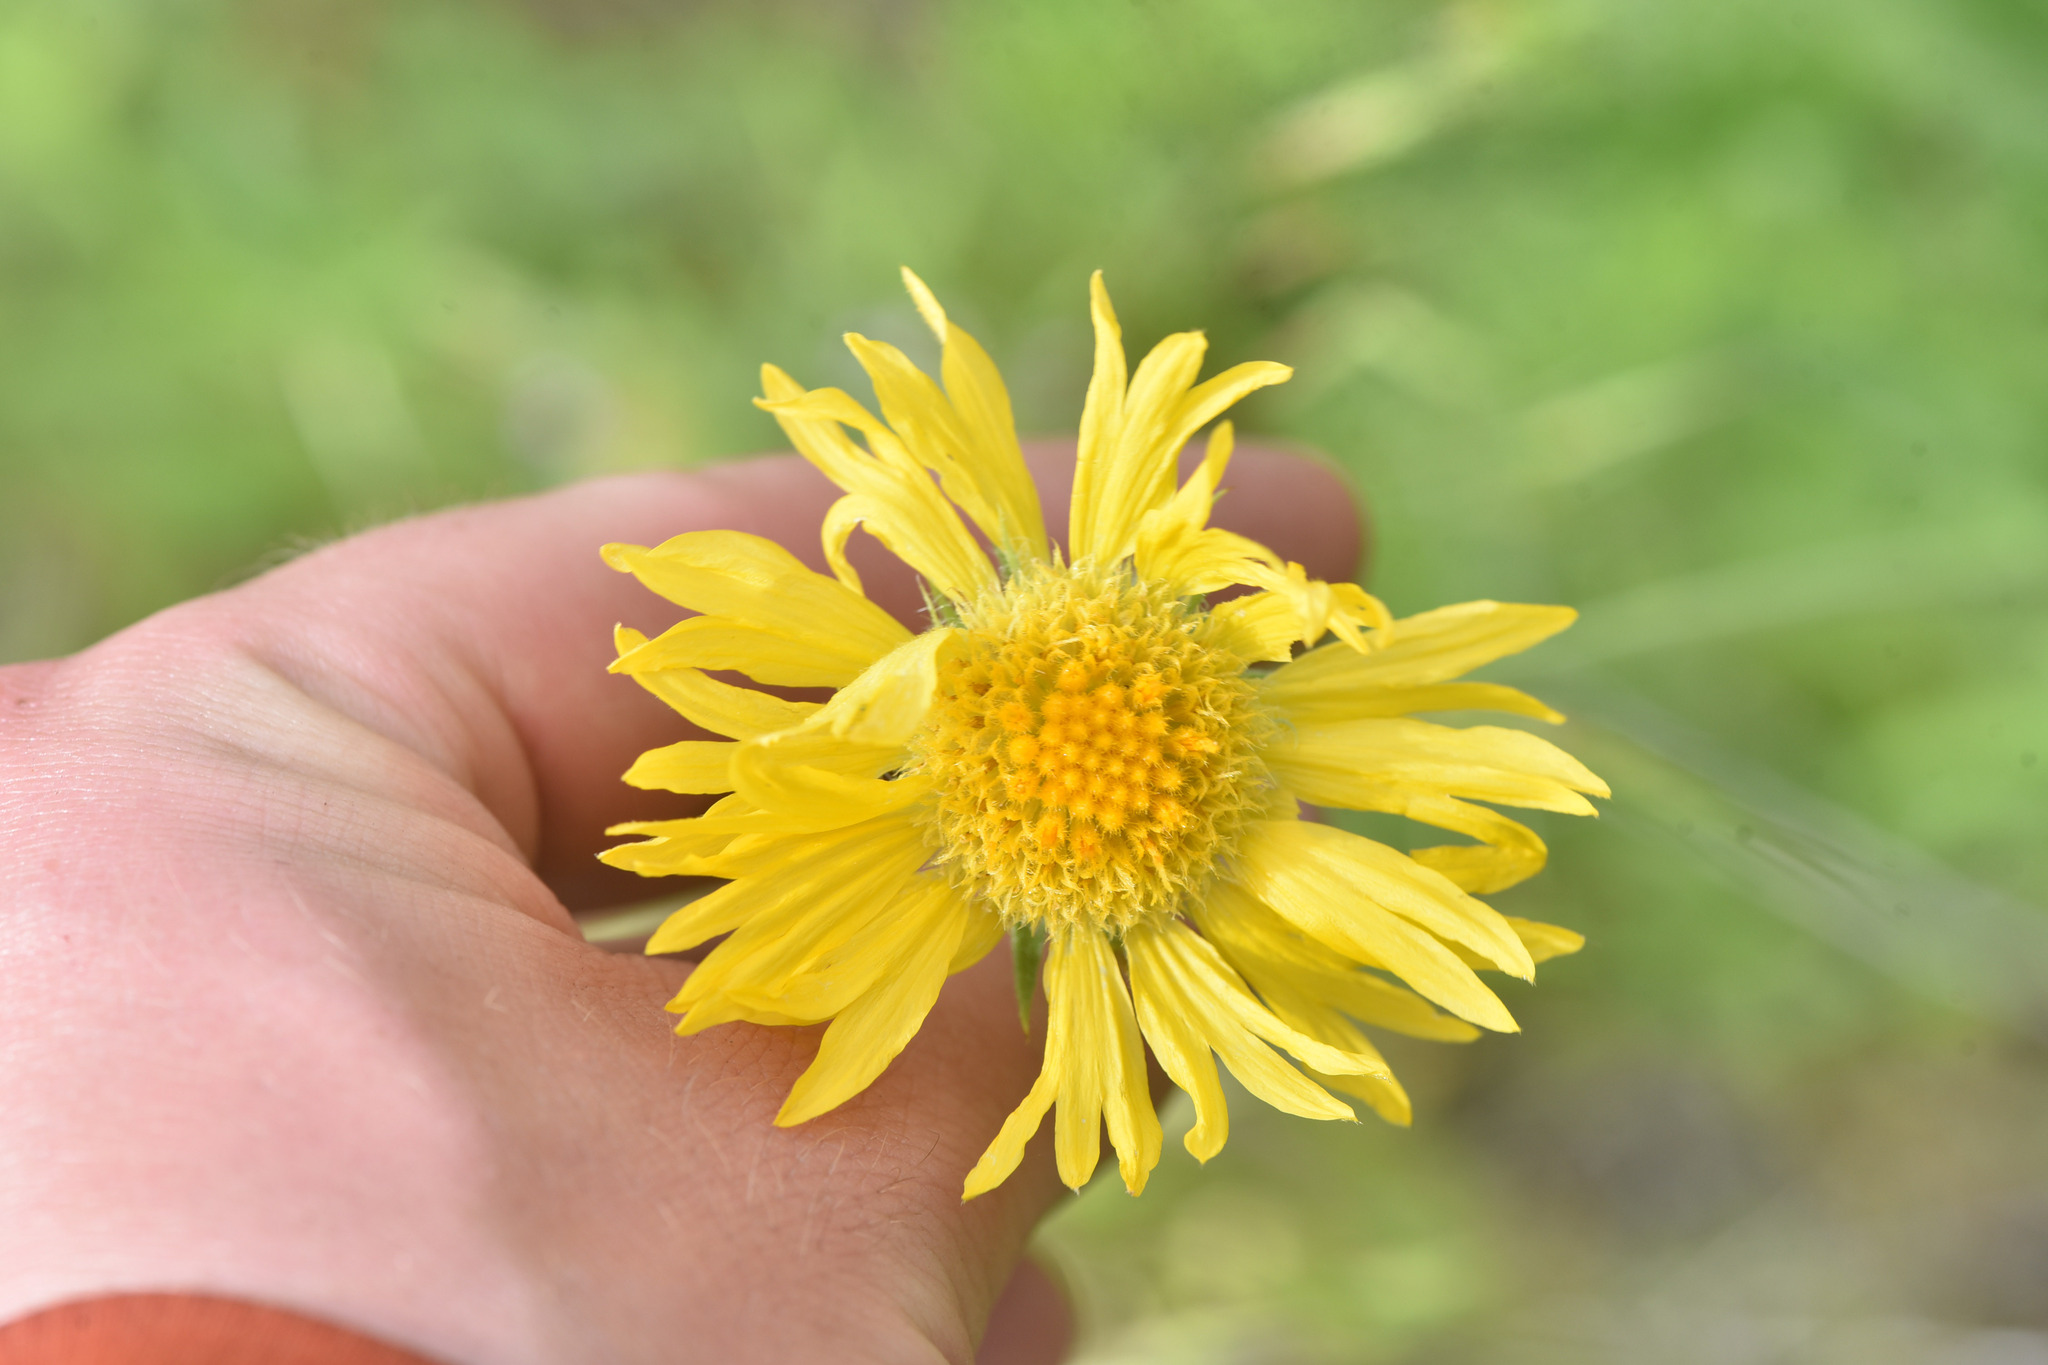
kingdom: Plantae
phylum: Tracheophyta
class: Magnoliopsida
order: Asterales
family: Asteraceae
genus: Gaillardia
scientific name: Gaillardia aristata
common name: Blanket-flower
